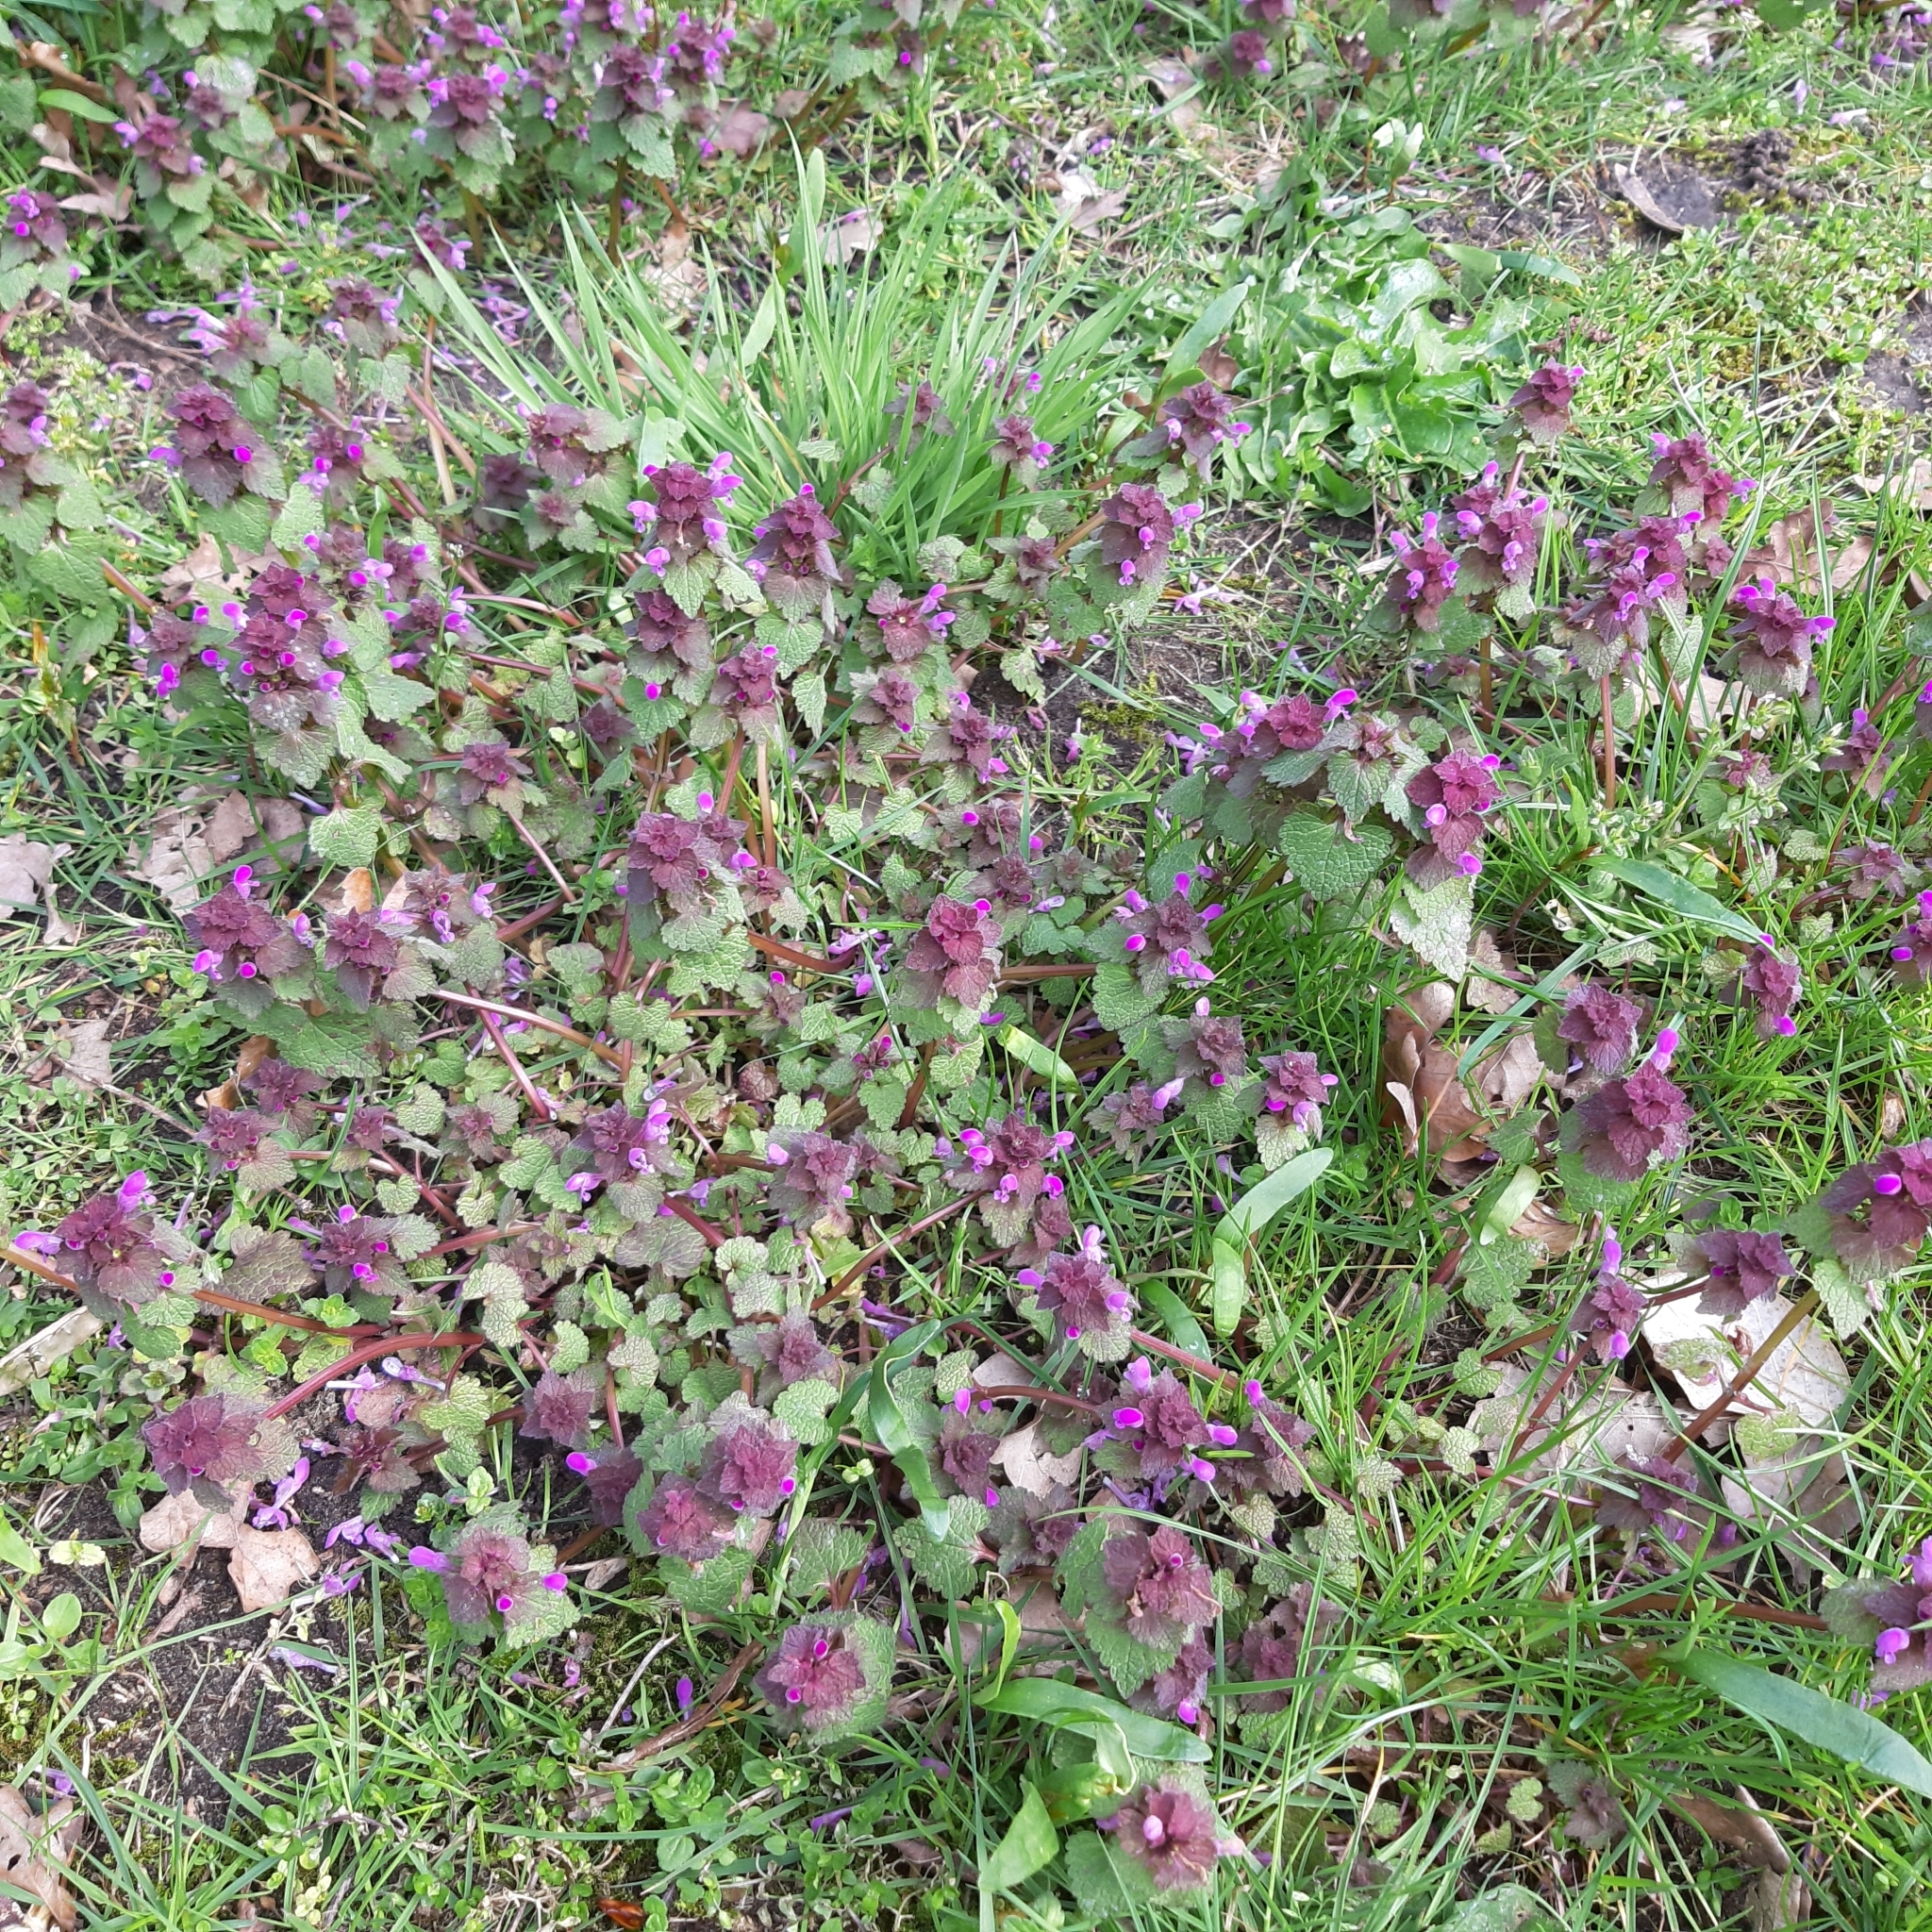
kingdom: Plantae
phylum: Tracheophyta
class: Magnoliopsida
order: Lamiales
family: Lamiaceae
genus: Lamium
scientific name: Lamium purpureum
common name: Red dead-nettle
